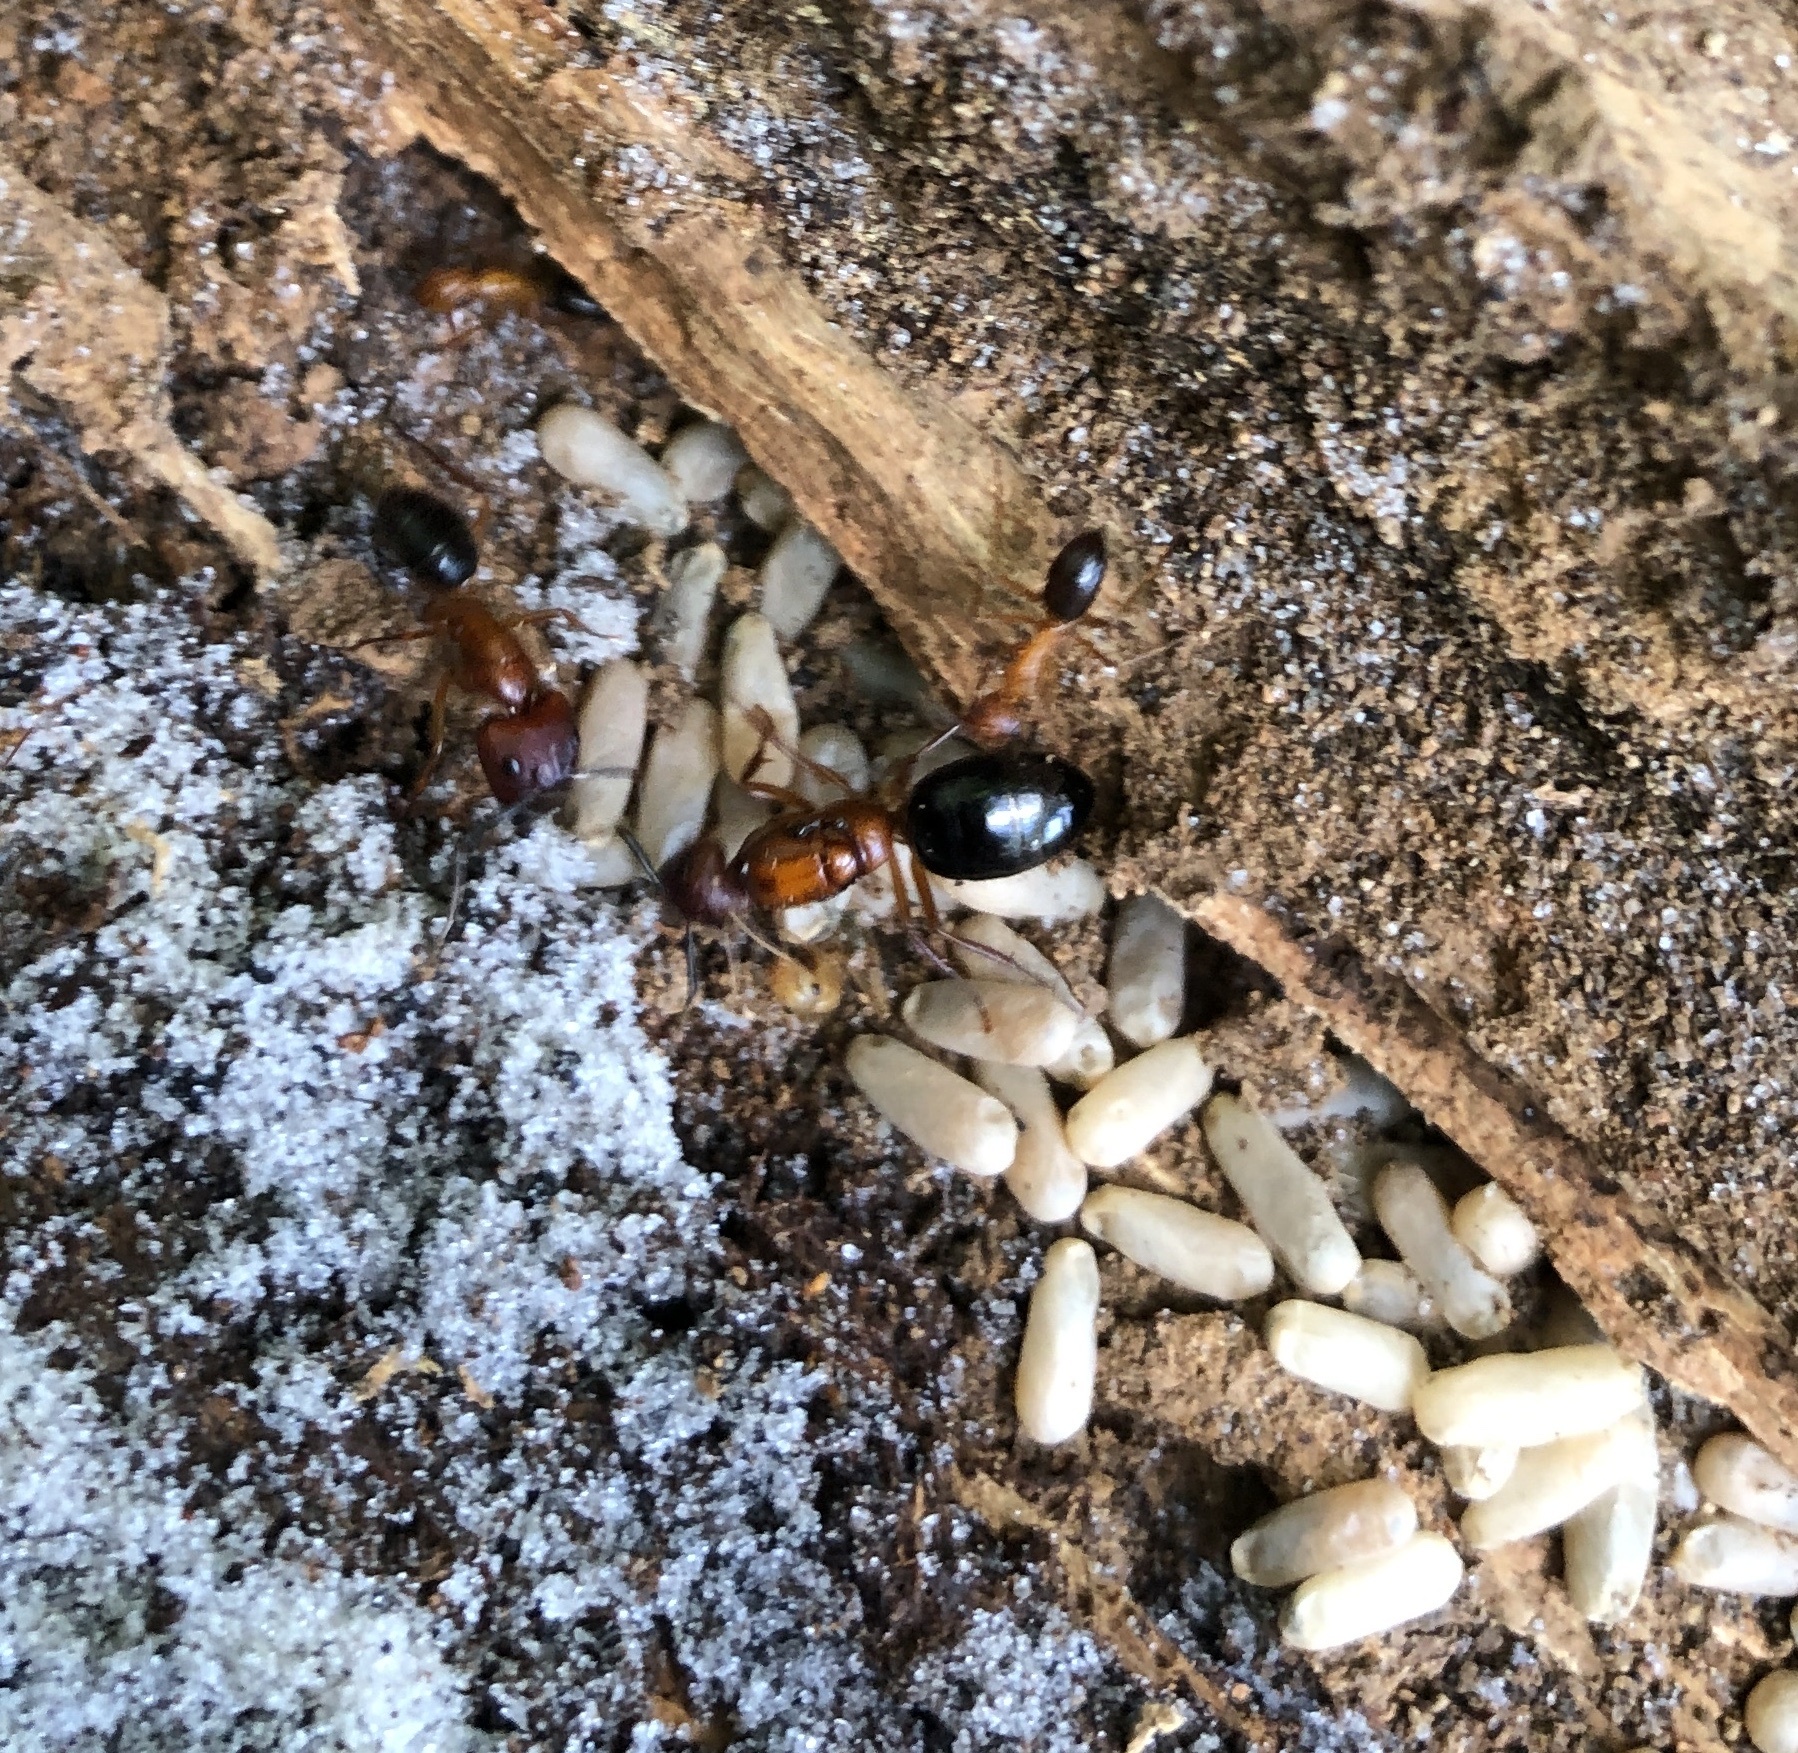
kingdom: Animalia
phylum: Arthropoda
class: Insecta
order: Hymenoptera
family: Formicidae
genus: Camponotus
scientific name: Camponotus floridanus
